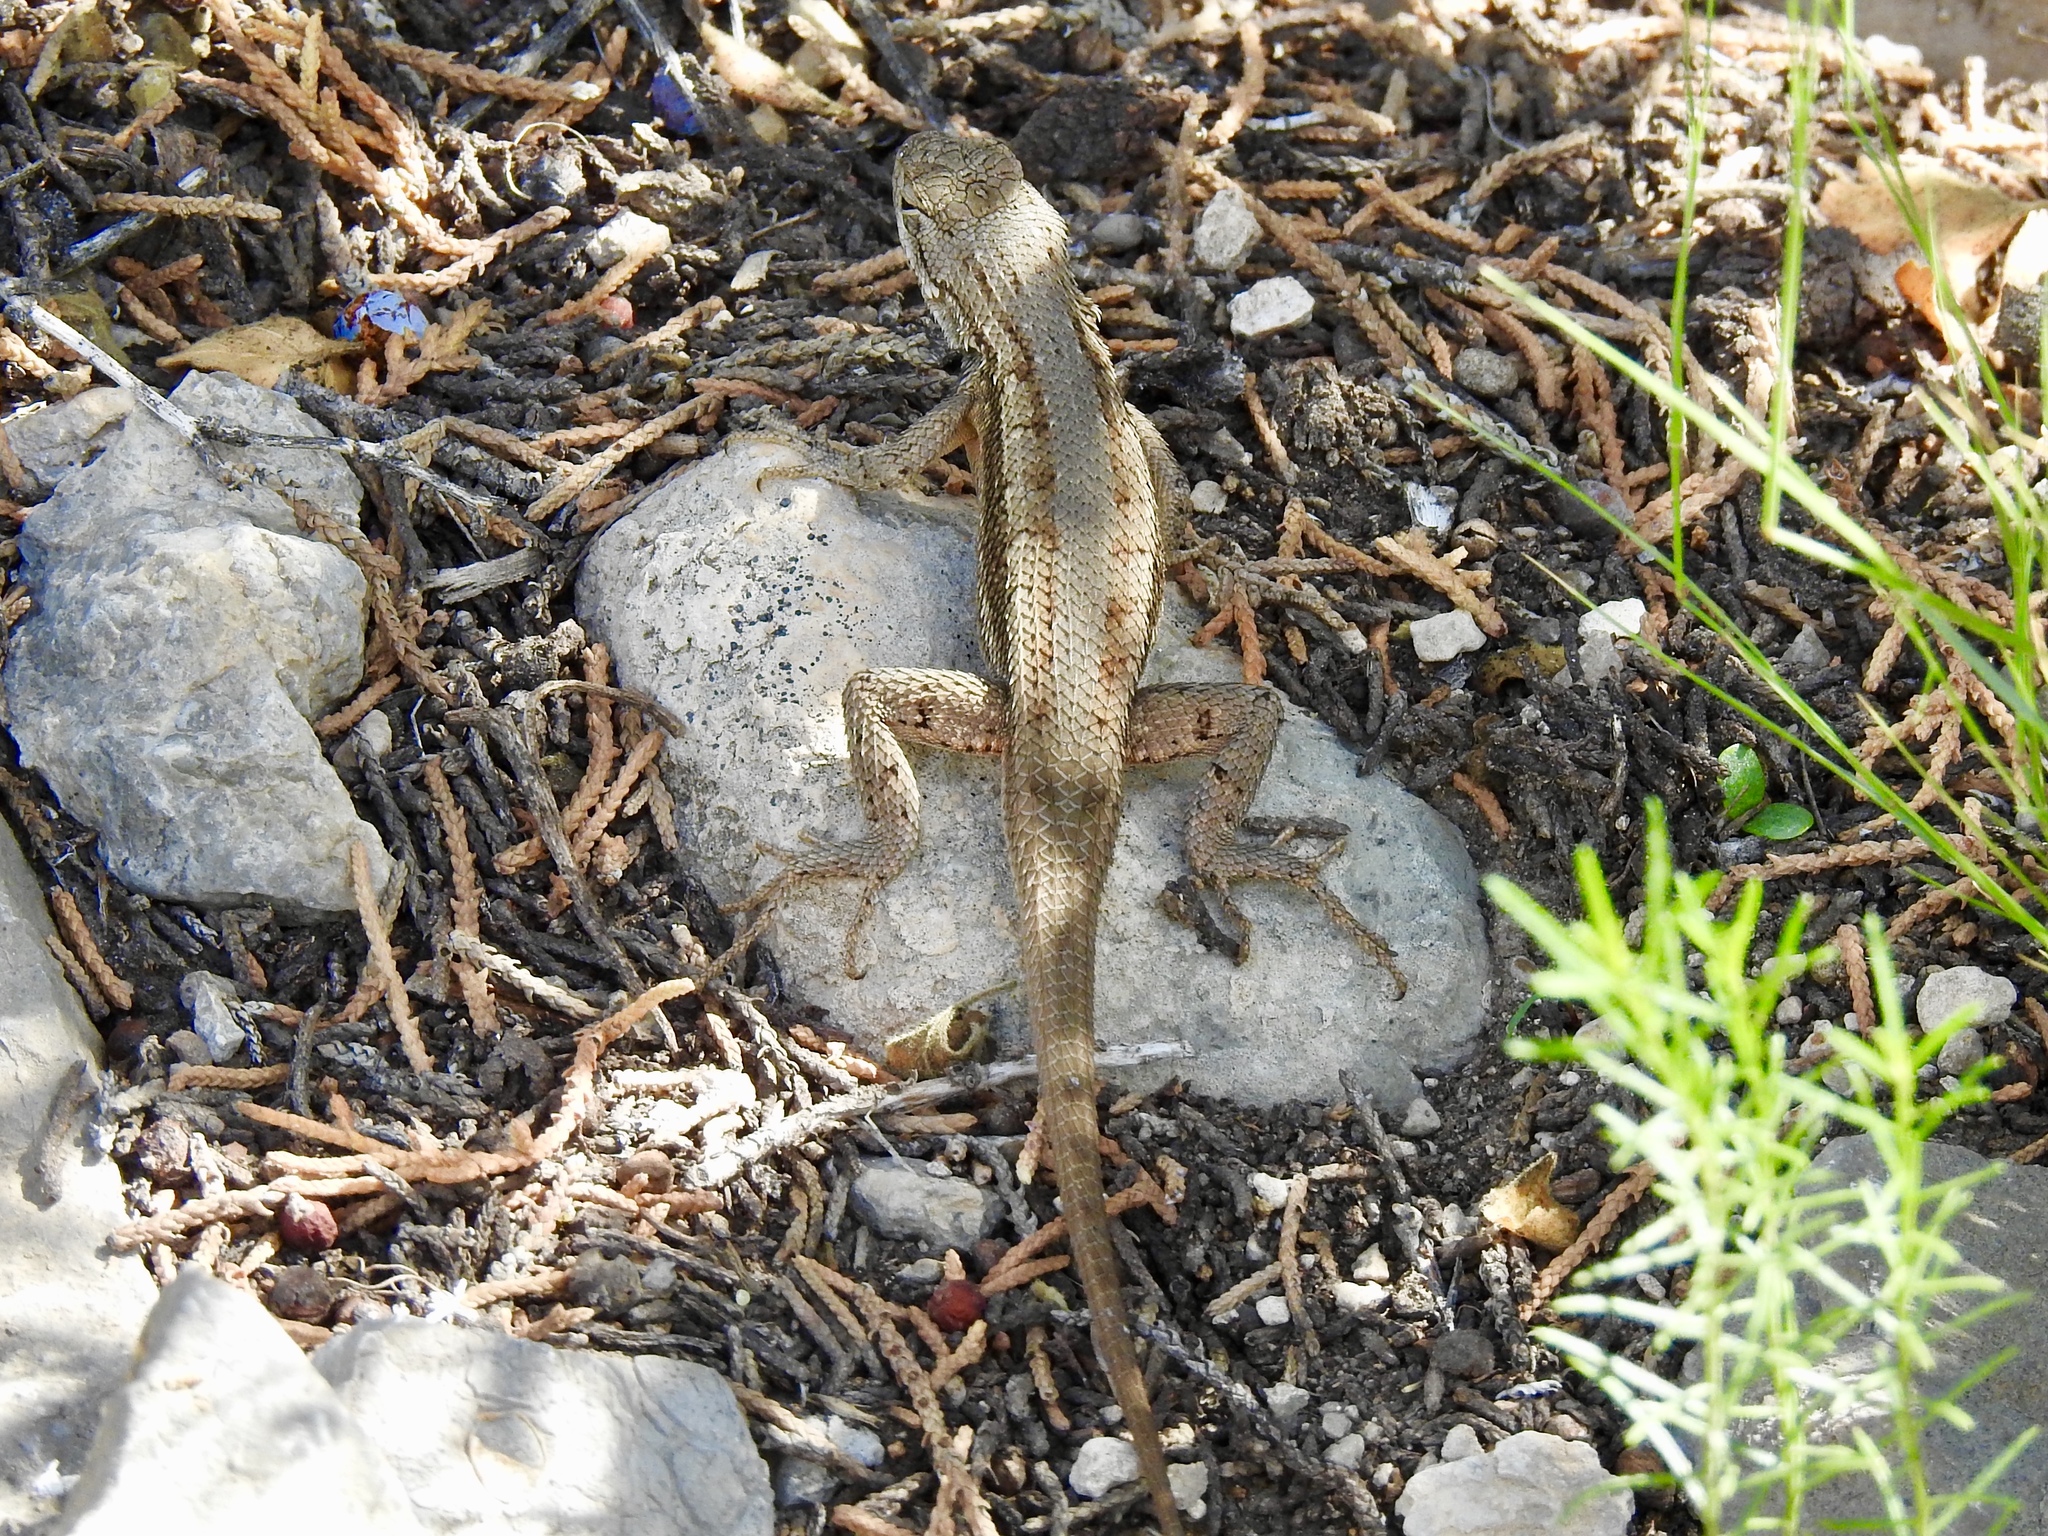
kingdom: Animalia
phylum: Chordata
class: Squamata
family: Phrynosomatidae
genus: Sceloporus
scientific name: Sceloporus cowlesi
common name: White sands prairie lizard
